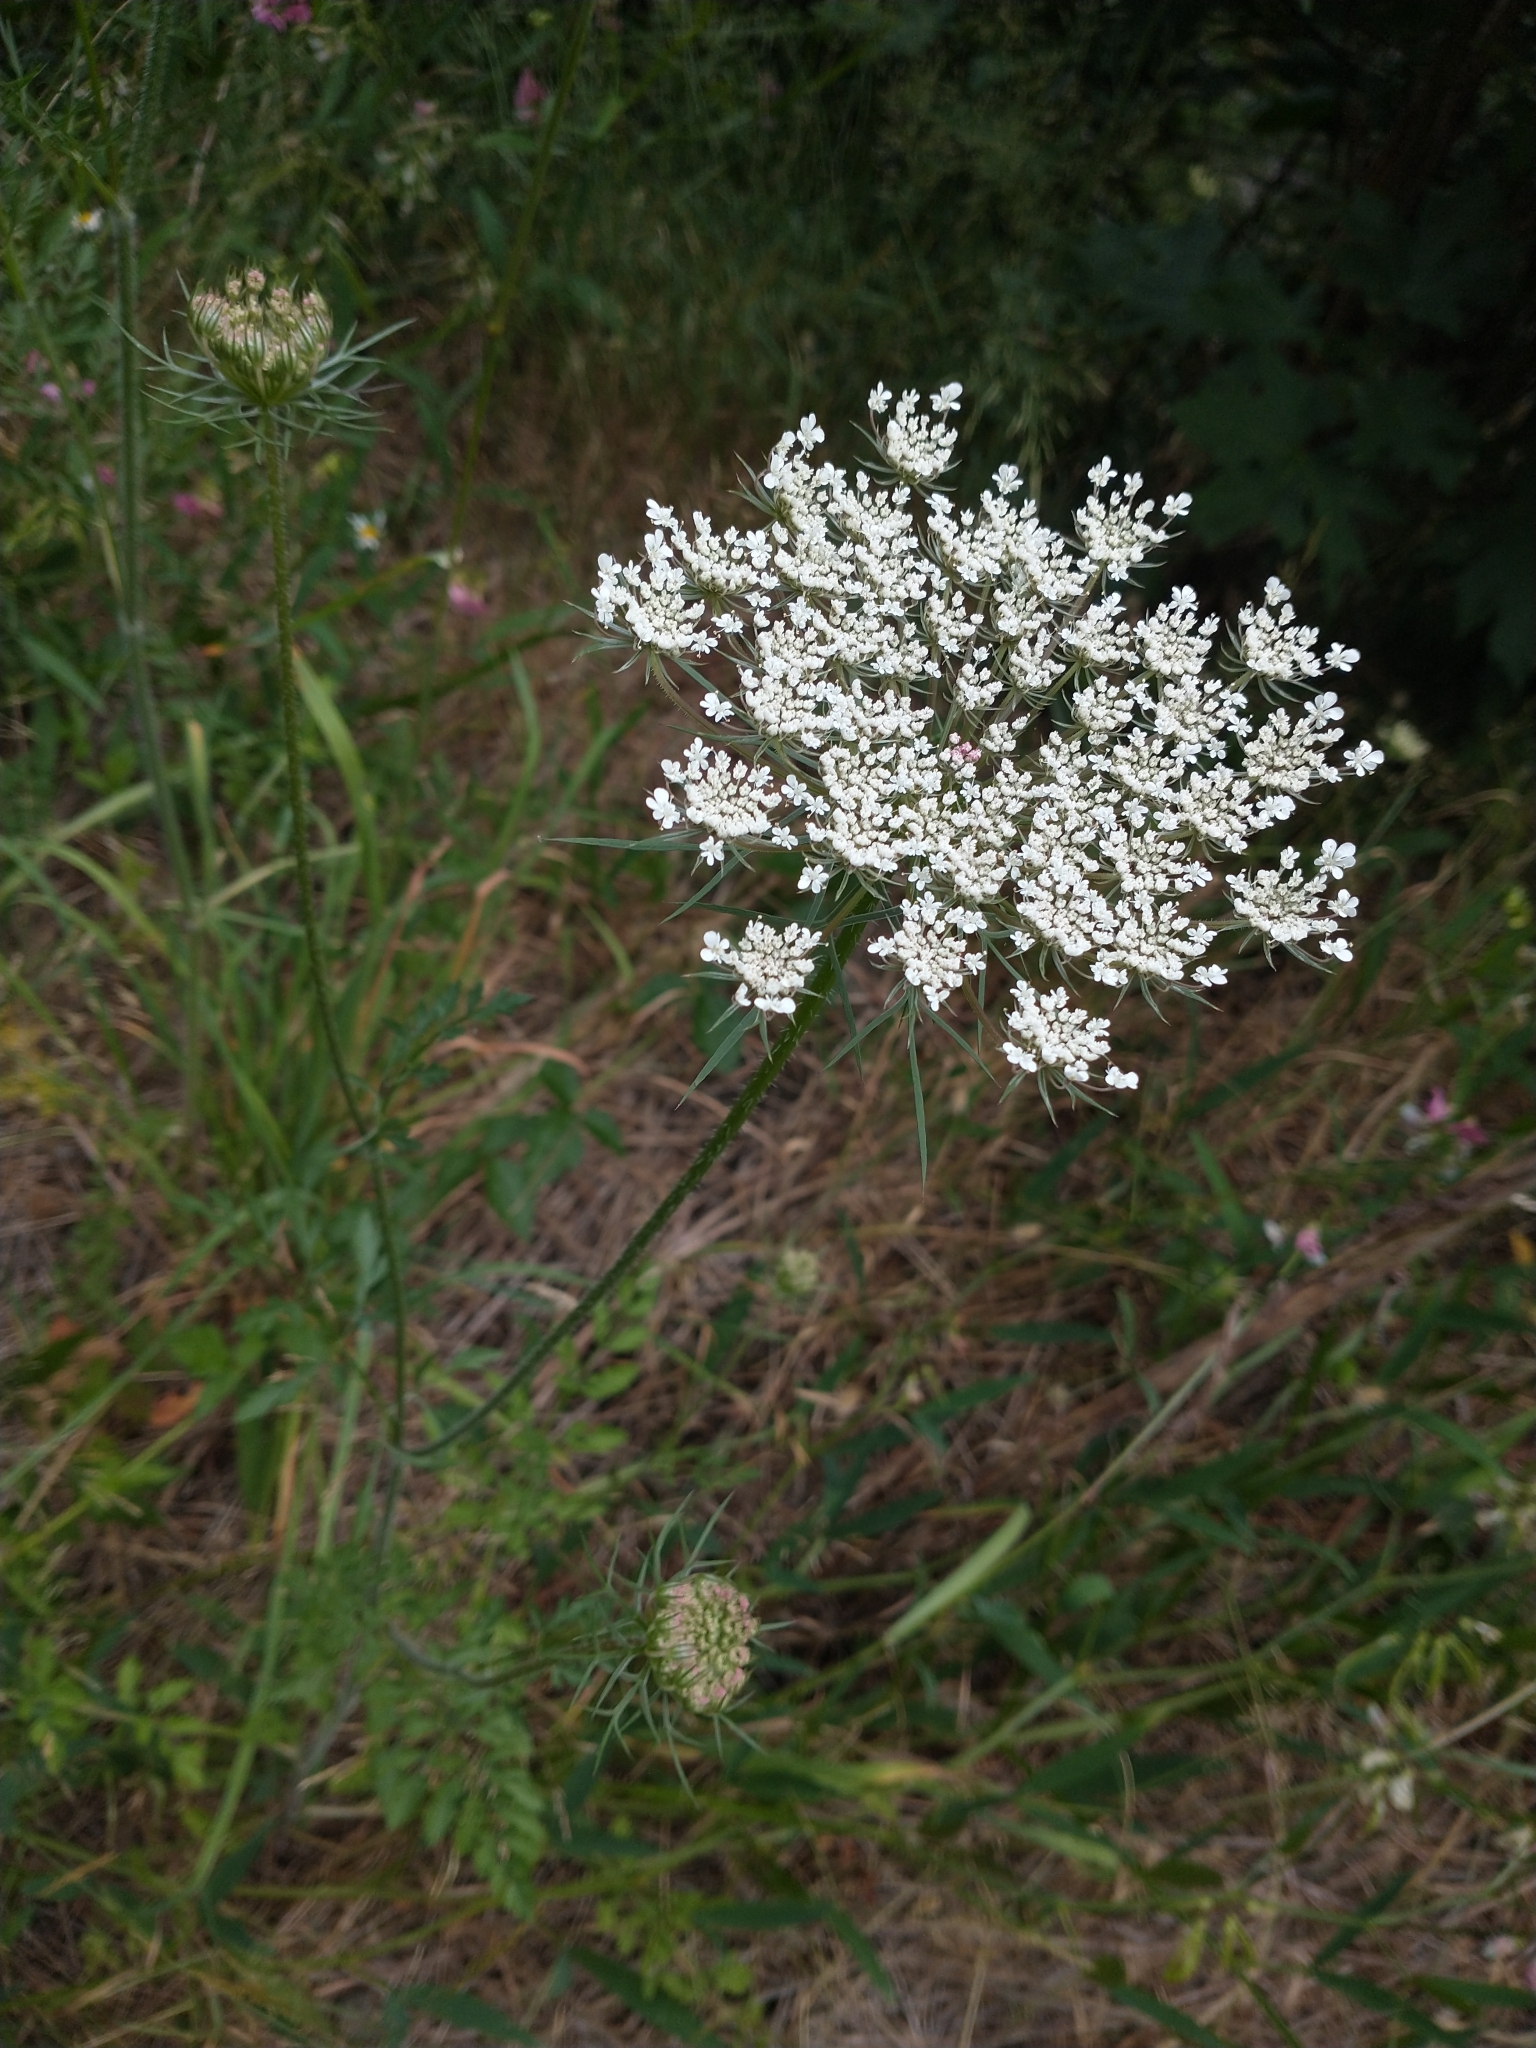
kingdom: Plantae
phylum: Tracheophyta
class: Magnoliopsida
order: Apiales
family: Apiaceae
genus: Daucus
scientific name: Daucus carota
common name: Wild carrot
